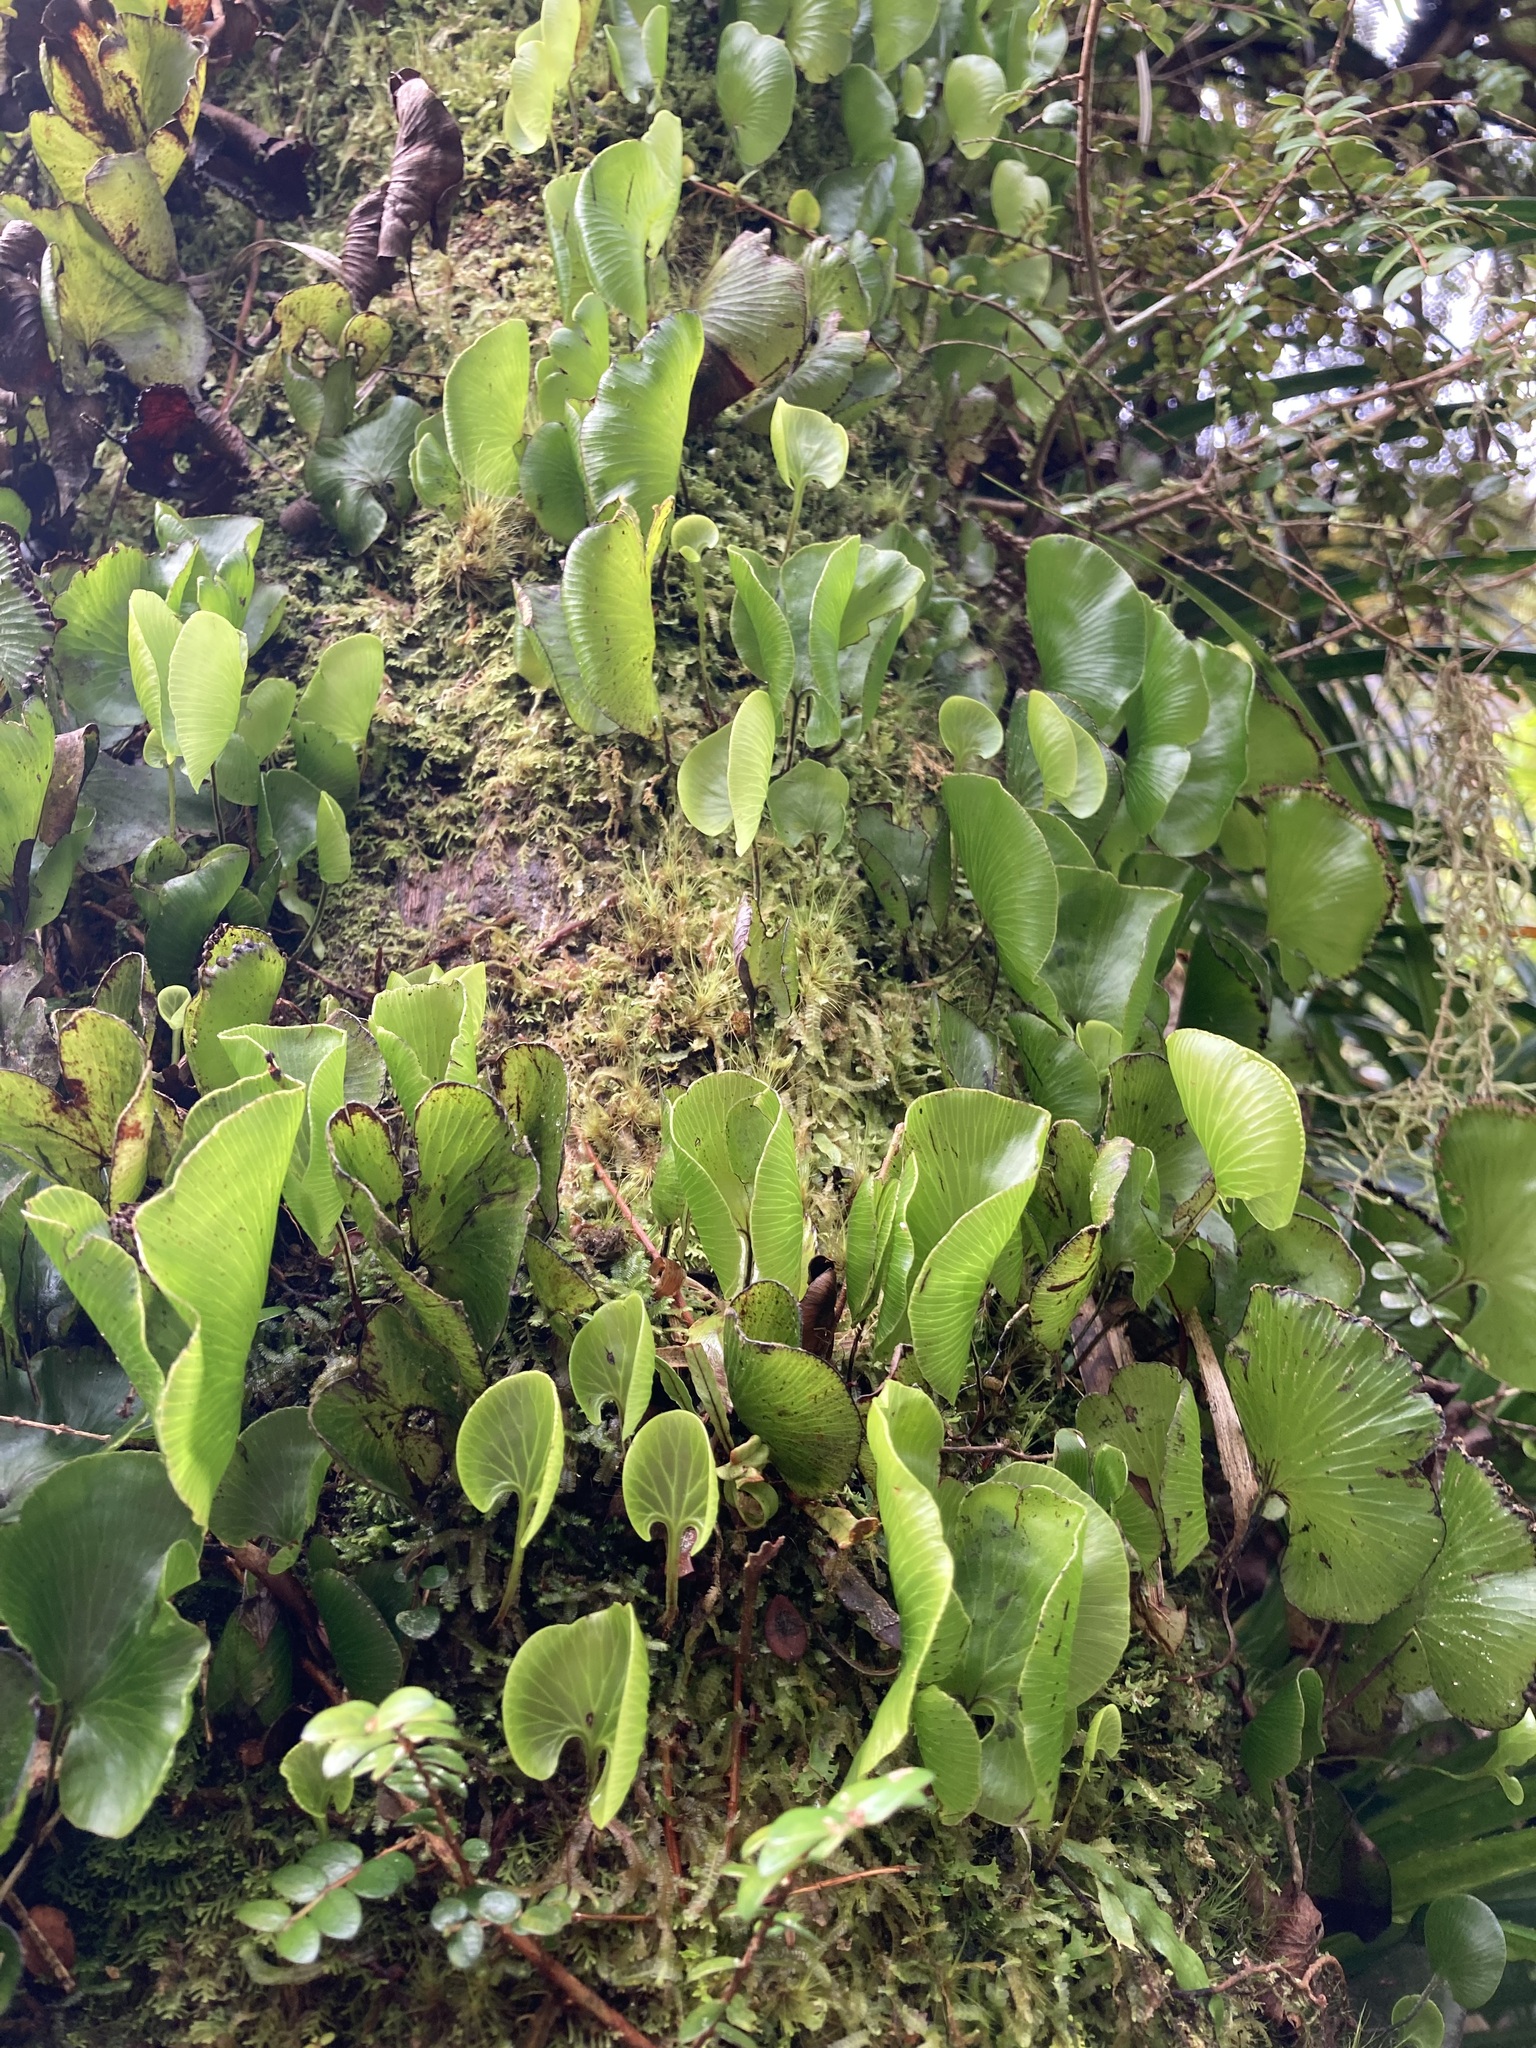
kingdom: Plantae
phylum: Tracheophyta
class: Polypodiopsida
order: Hymenophyllales
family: Hymenophyllaceae
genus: Hymenophyllum
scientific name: Hymenophyllum nephrophyllum
